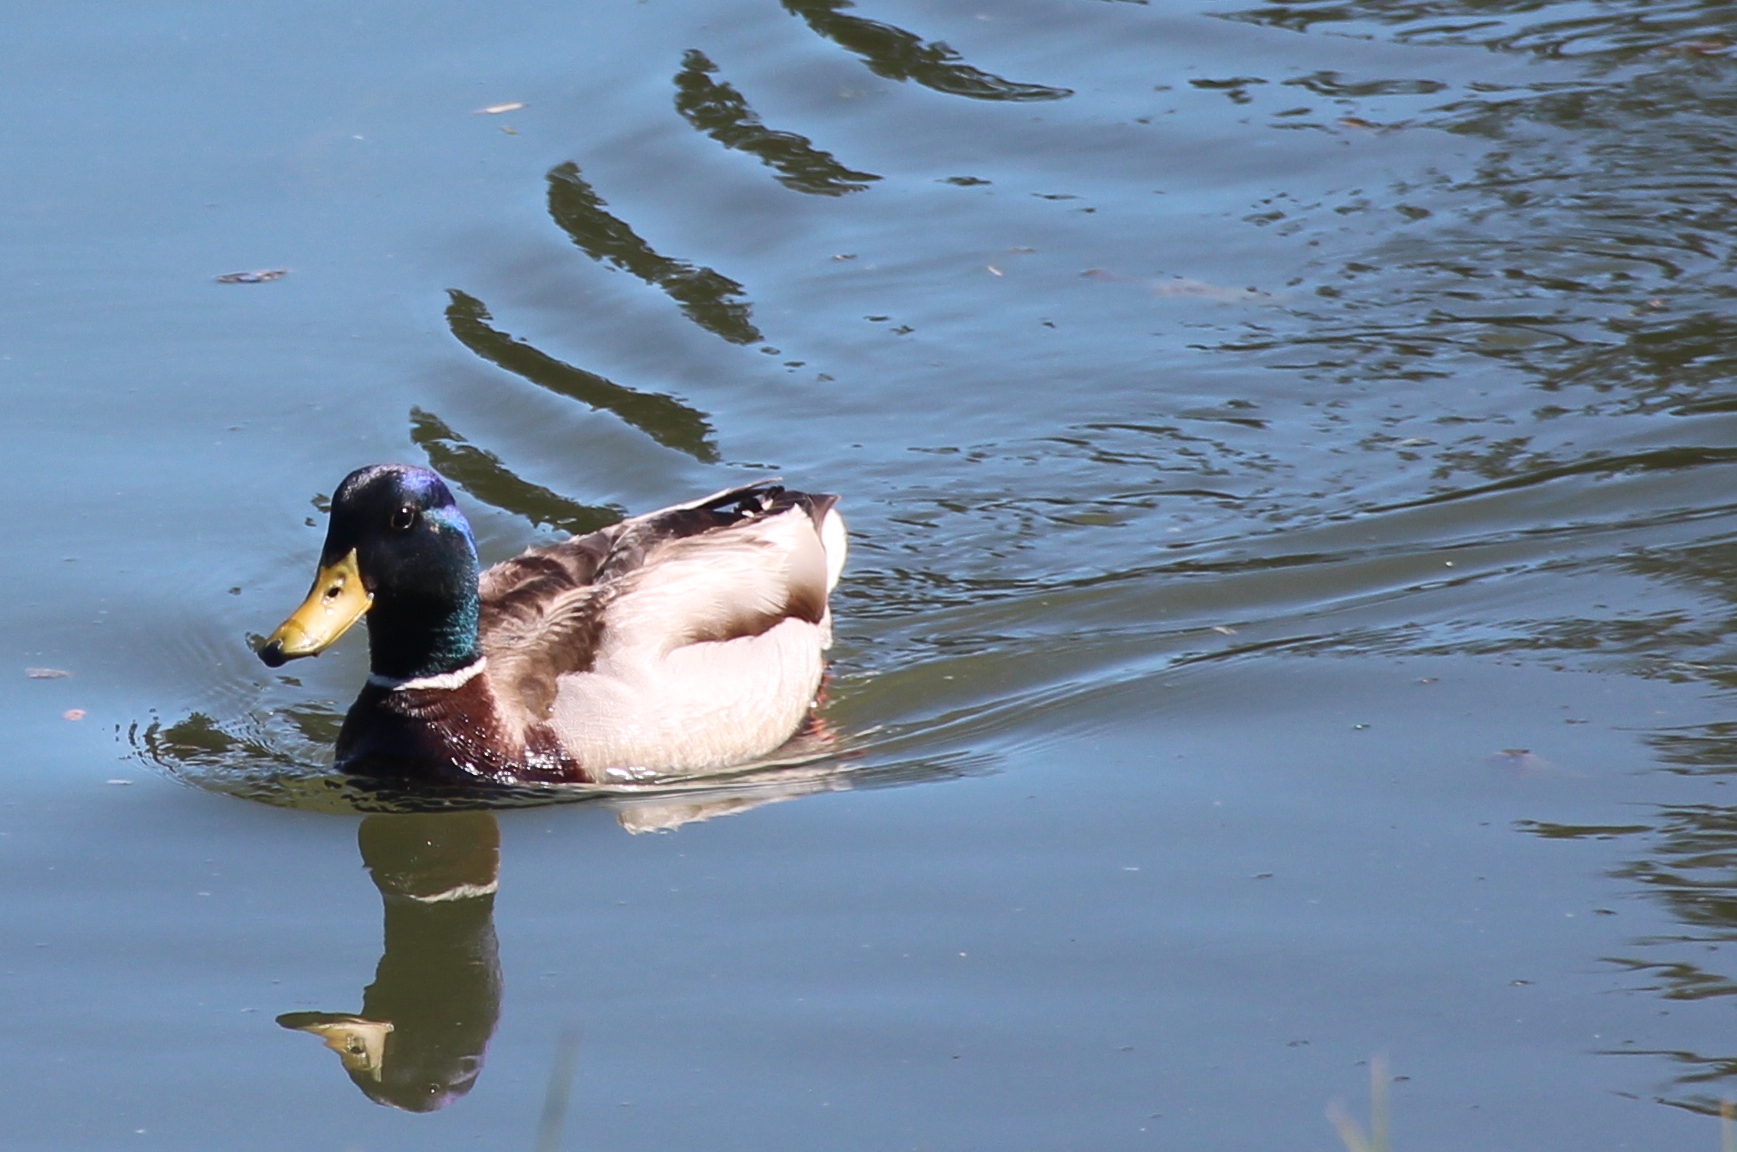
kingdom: Animalia
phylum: Chordata
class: Aves
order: Anseriformes
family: Anatidae
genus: Anas
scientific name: Anas platyrhynchos
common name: Mallard
